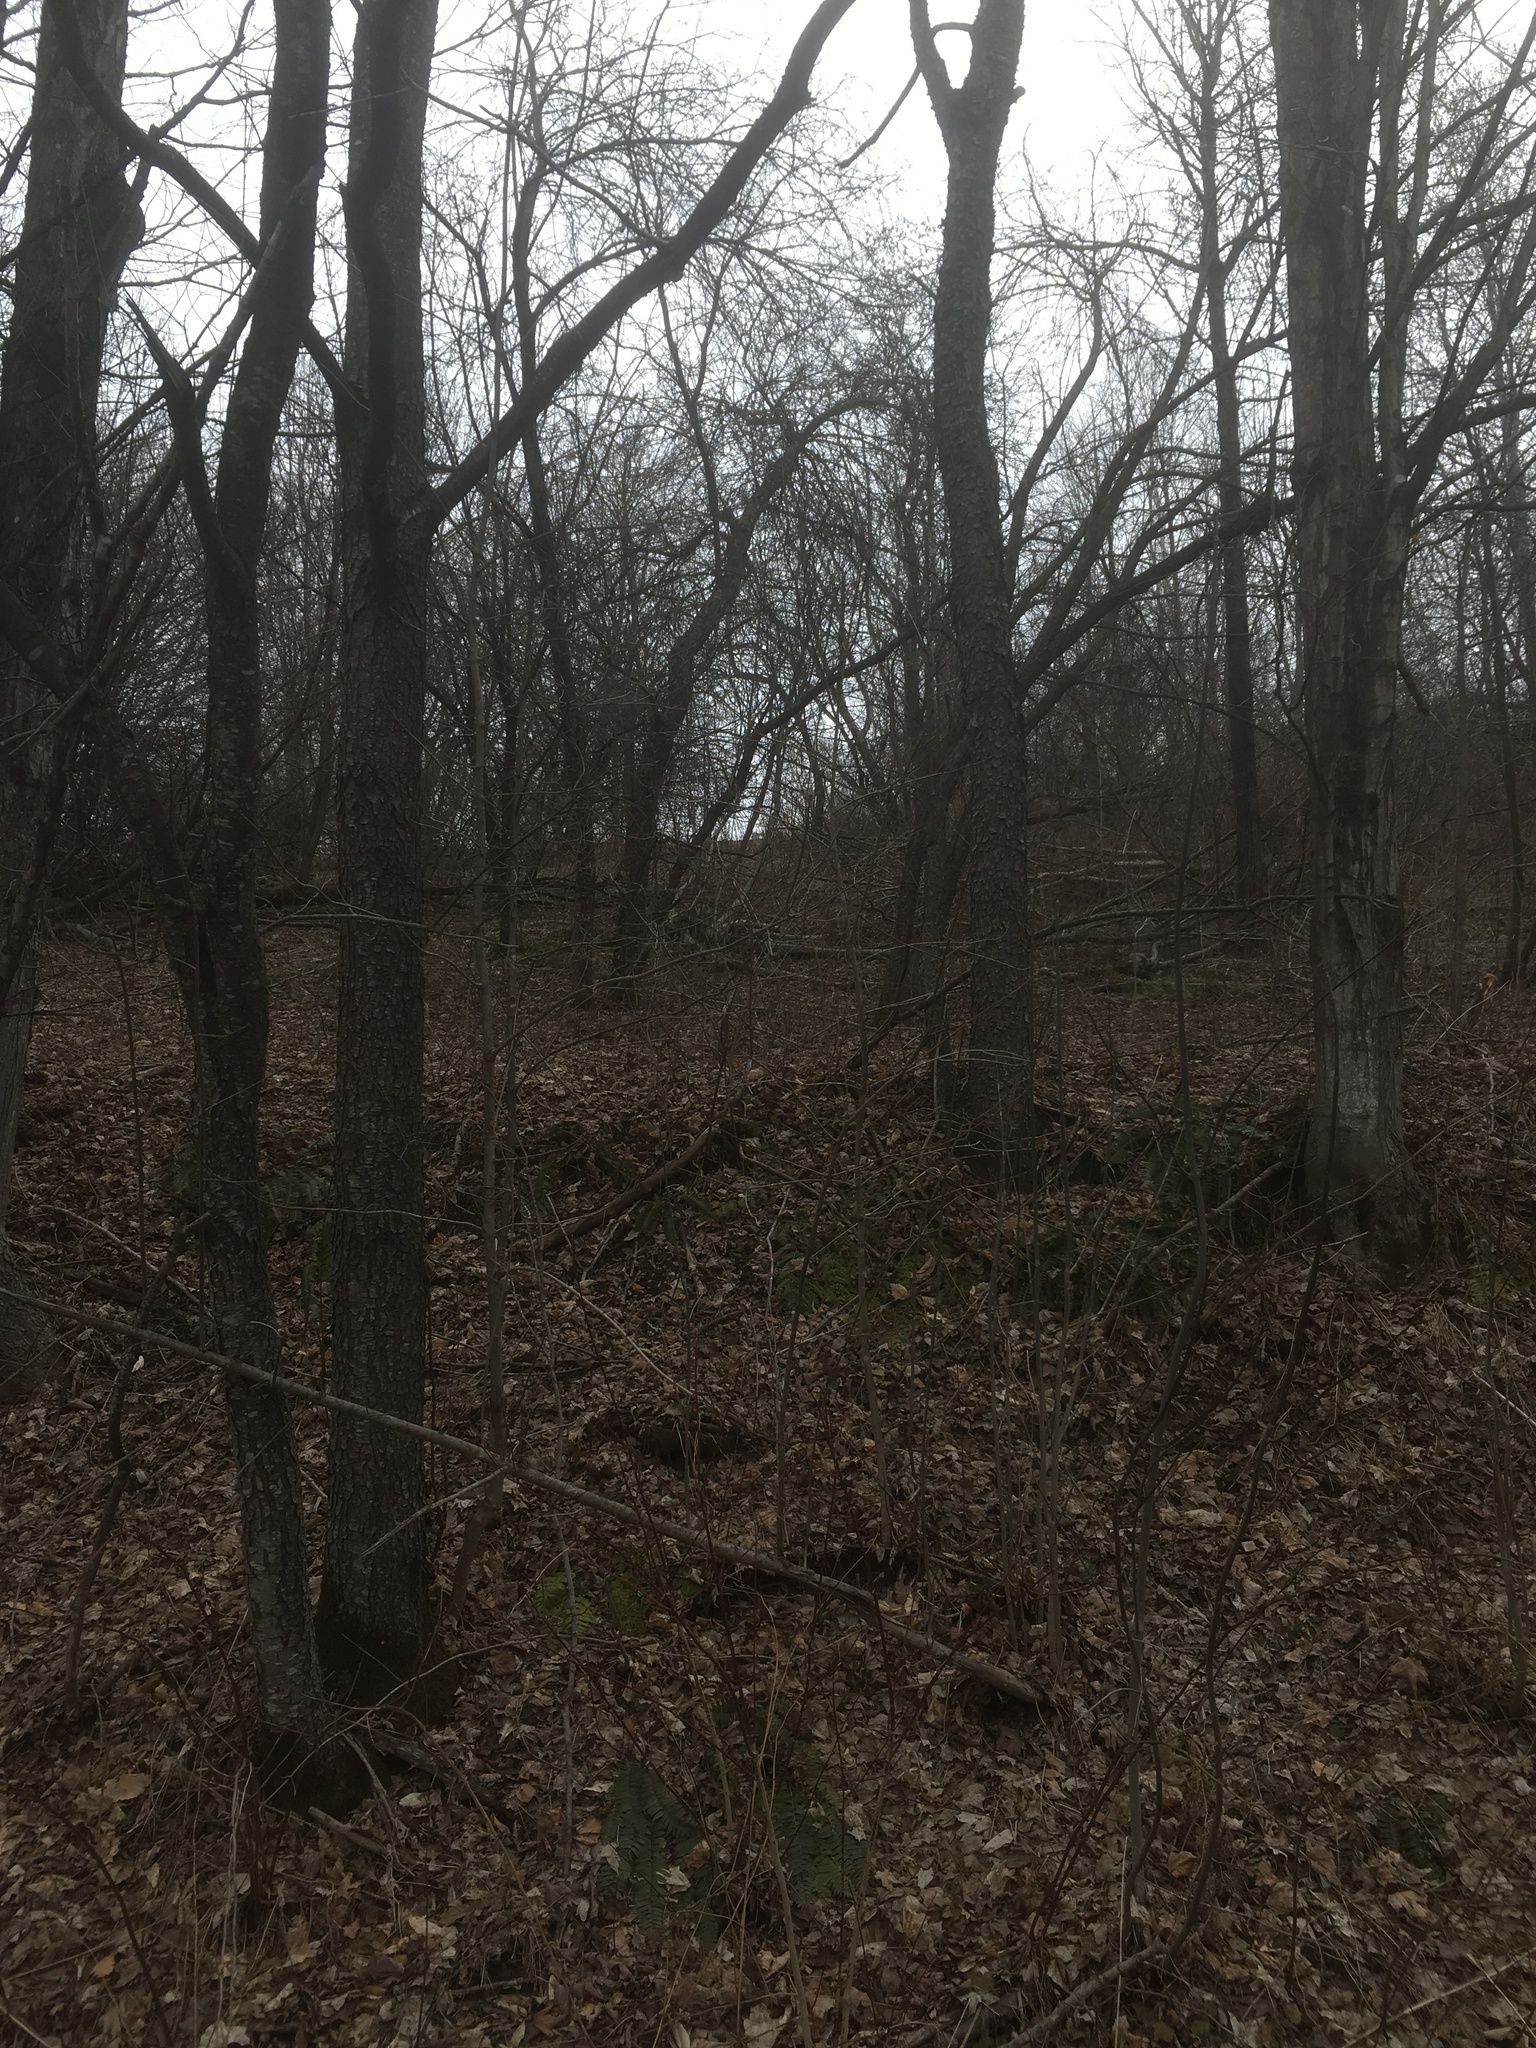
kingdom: Plantae
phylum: Tracheophyta
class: Magnoliopsida
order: Rosales
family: Rosaceae
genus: Prunus
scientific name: Prunus serotina
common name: Black cherry
